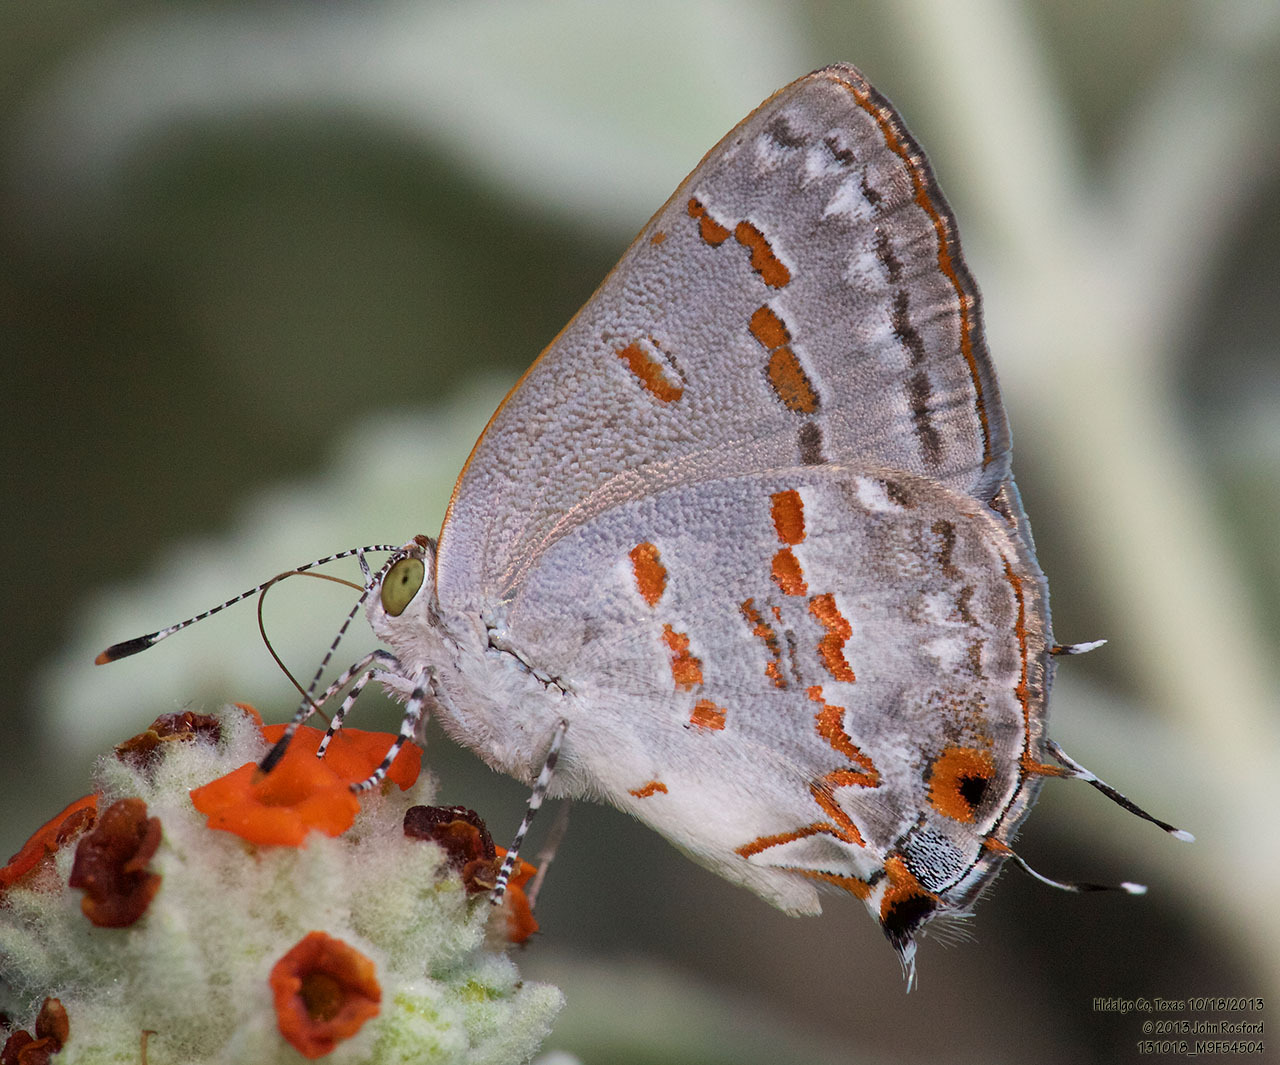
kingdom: Animalia
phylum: Arthropoda
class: Insecta
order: Lepidoptera
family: Lycaenidae
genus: Ministrymon
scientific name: Ministrymon clytie
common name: Clytie ministreak
